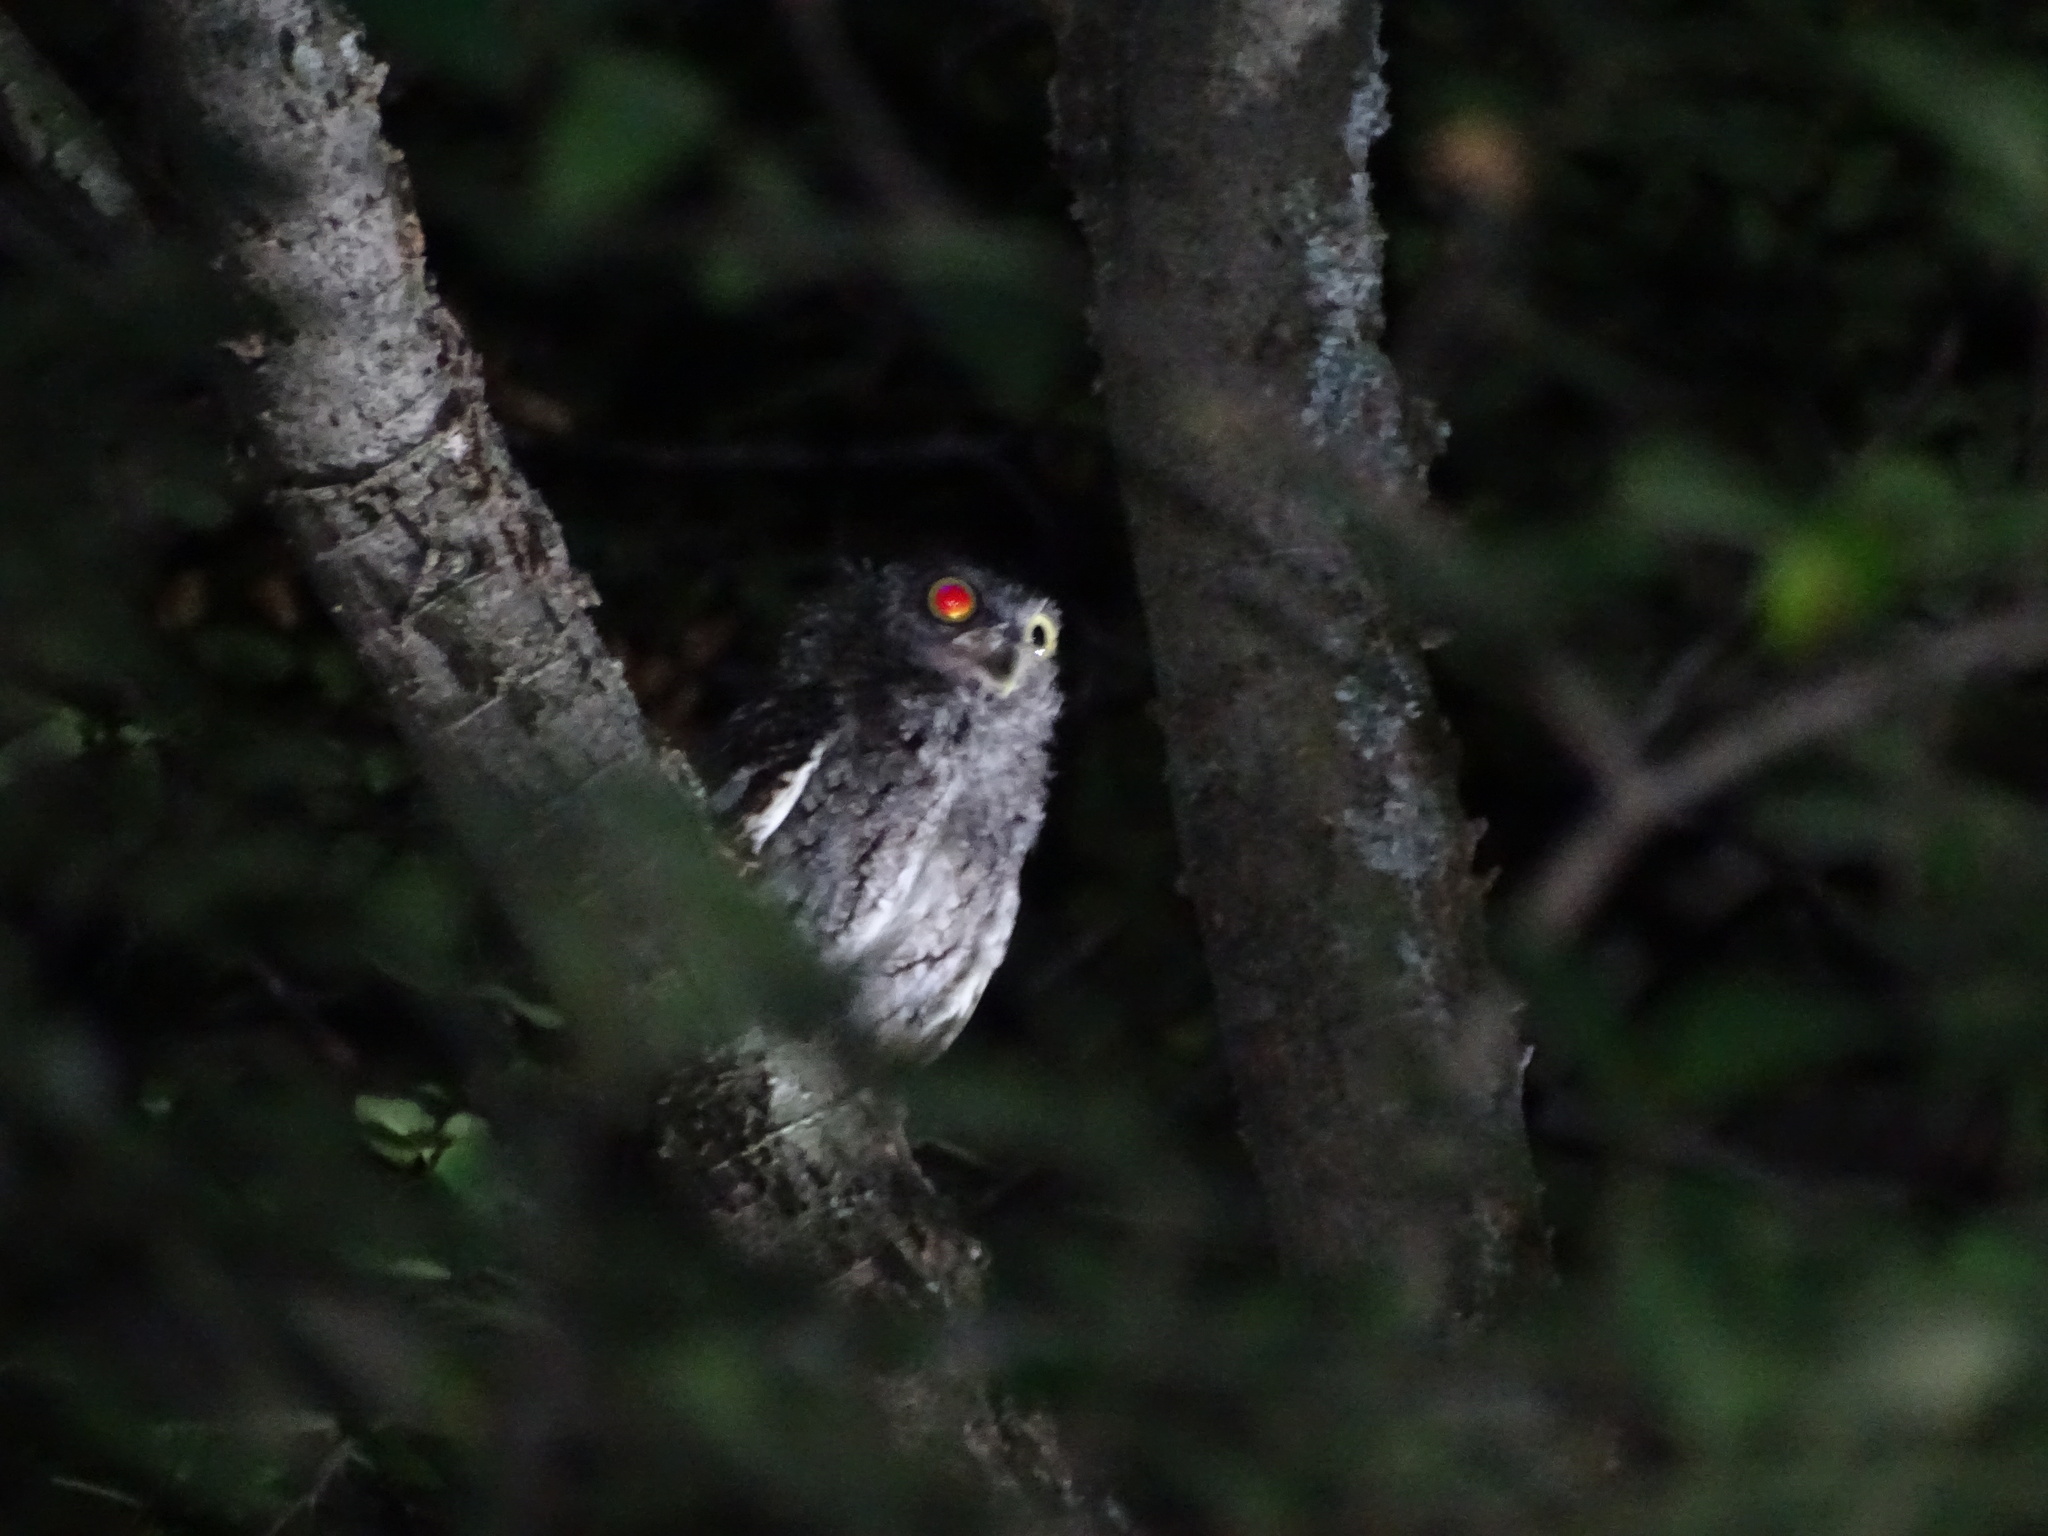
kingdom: Animalia
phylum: Chordata
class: Aves
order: Strigiformes
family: Strigidae
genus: Megascops
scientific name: Megascops asio
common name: Eastern screech-owl
